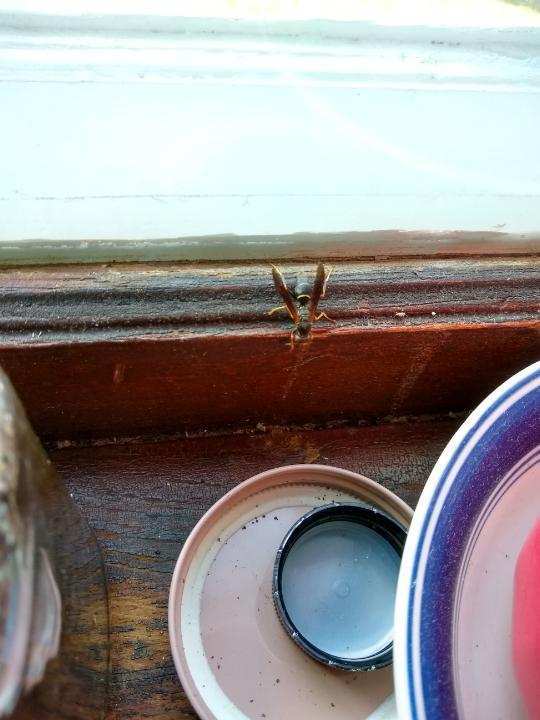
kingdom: Animalia
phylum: Arthropoda
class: Insecta
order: Hymenoptera
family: Eumenidae
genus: Polistes
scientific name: Polistes fuscatus
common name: Dark paper wasp
